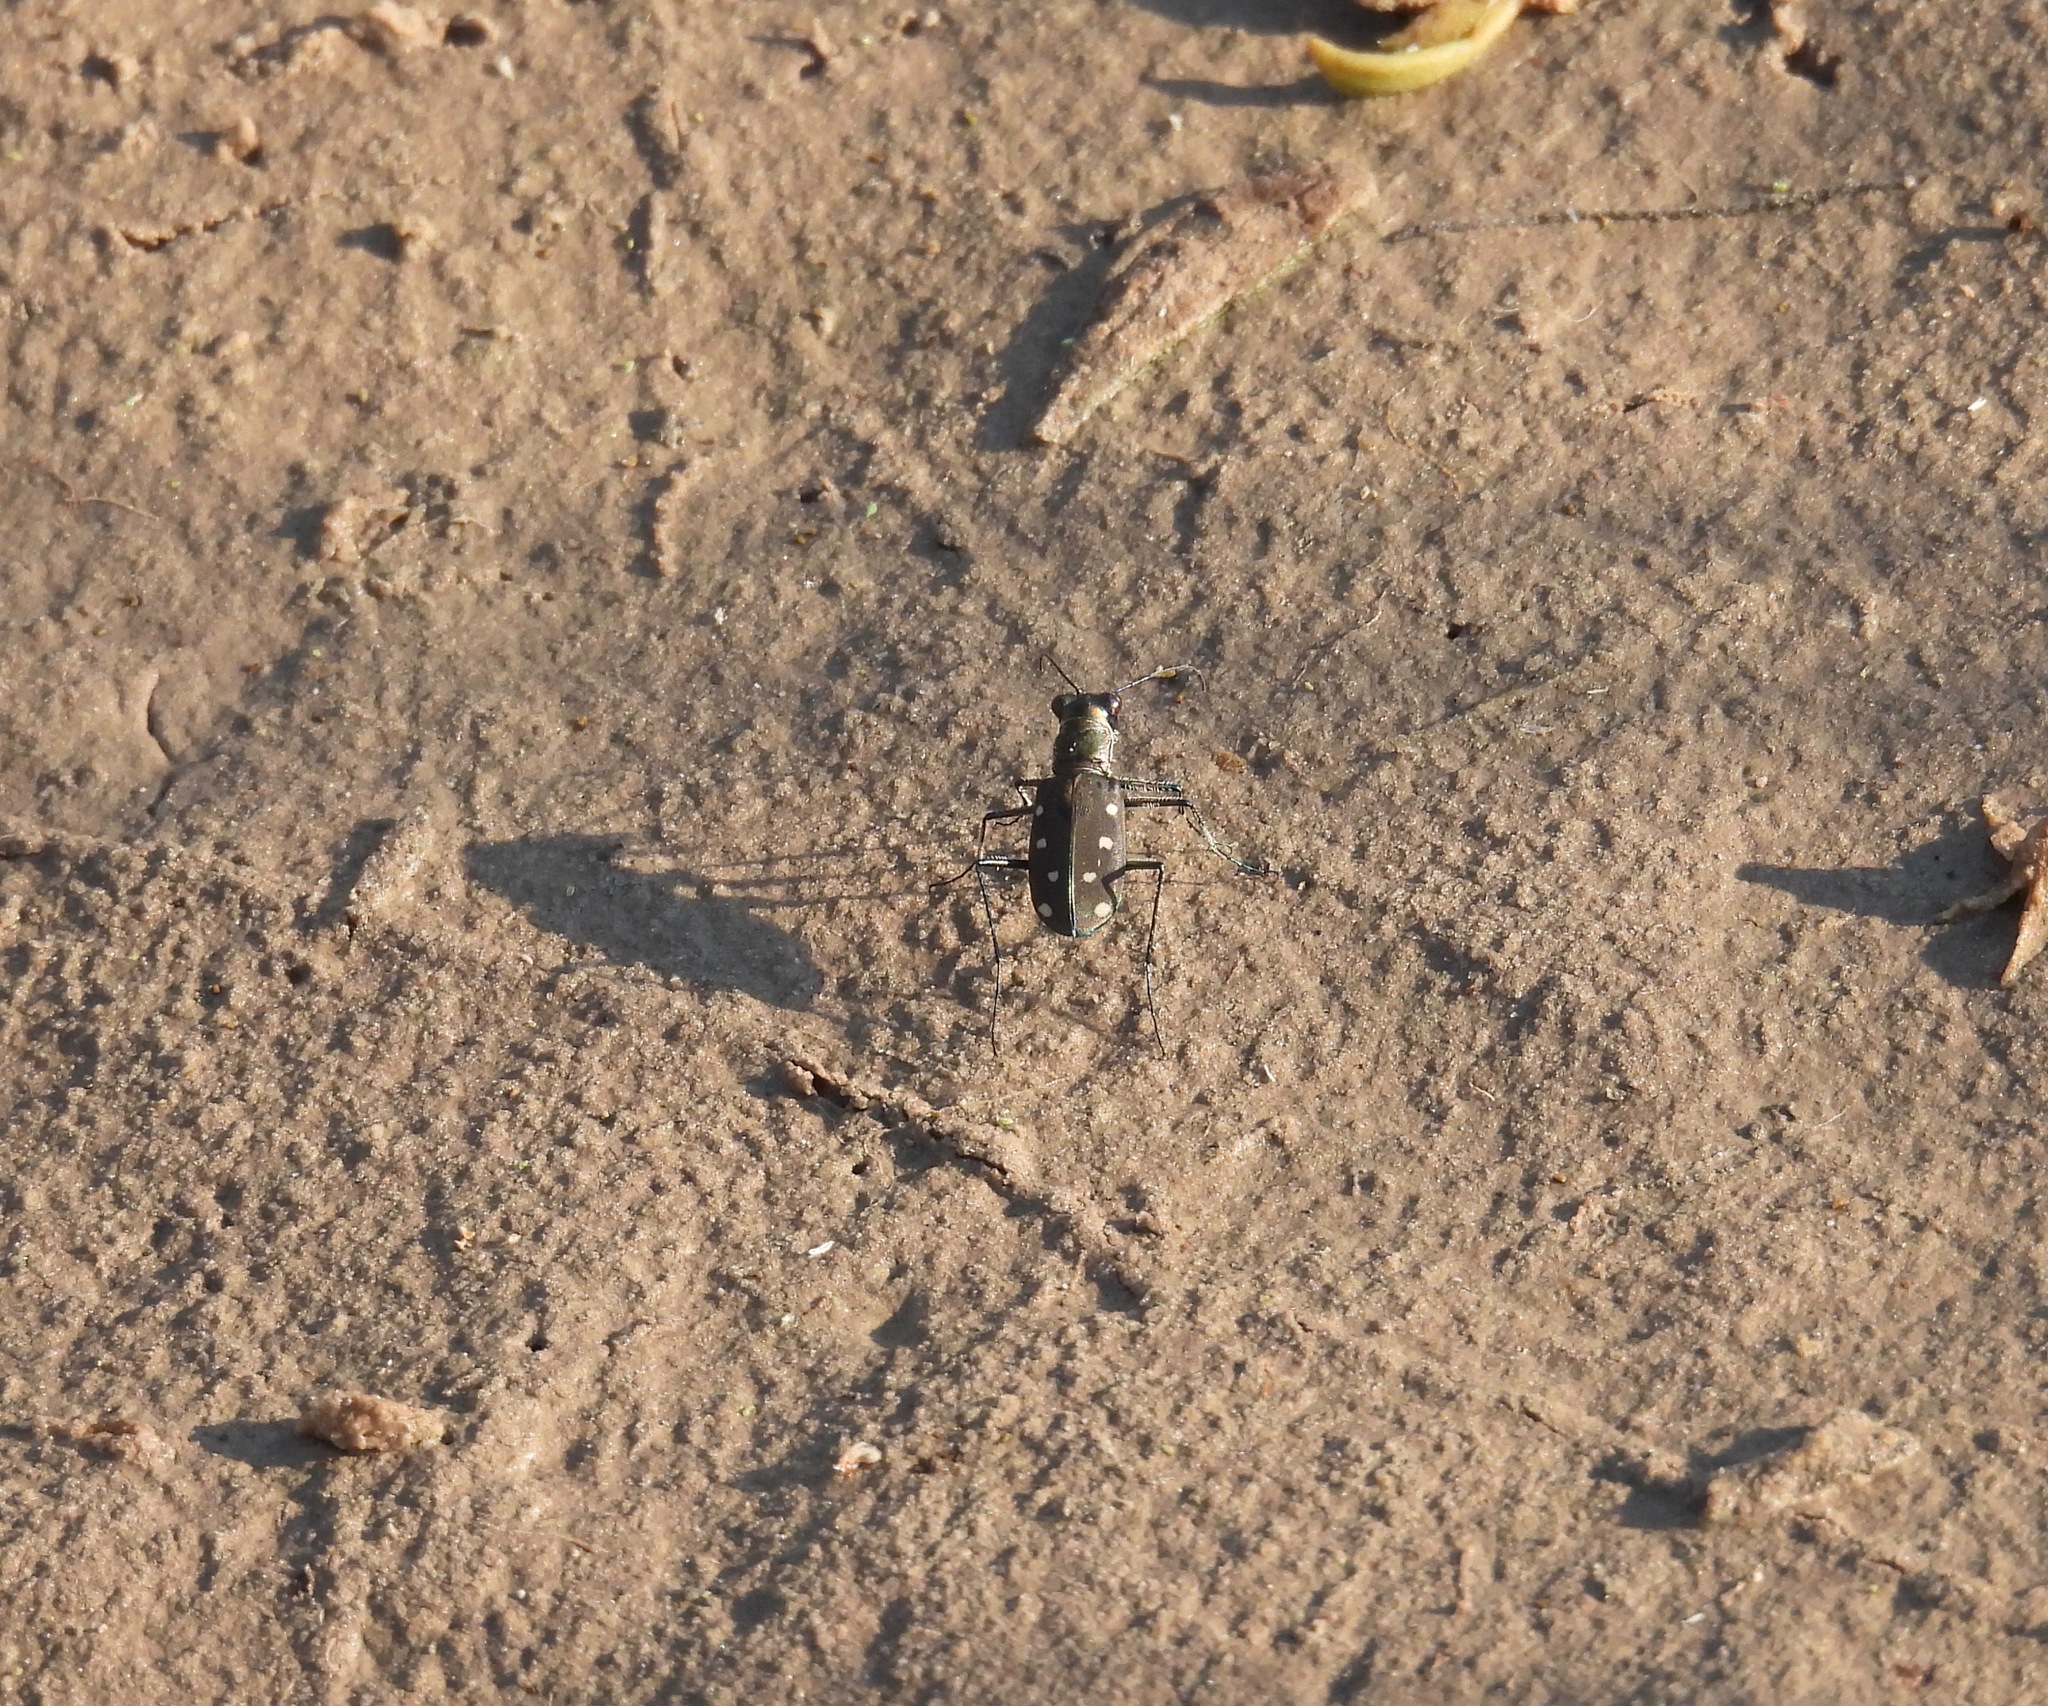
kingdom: Animalia
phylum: Arthropoda
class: Insecta
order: Coleoptera
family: Carabidae
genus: Cicindela
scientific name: Cicindela ocellata
